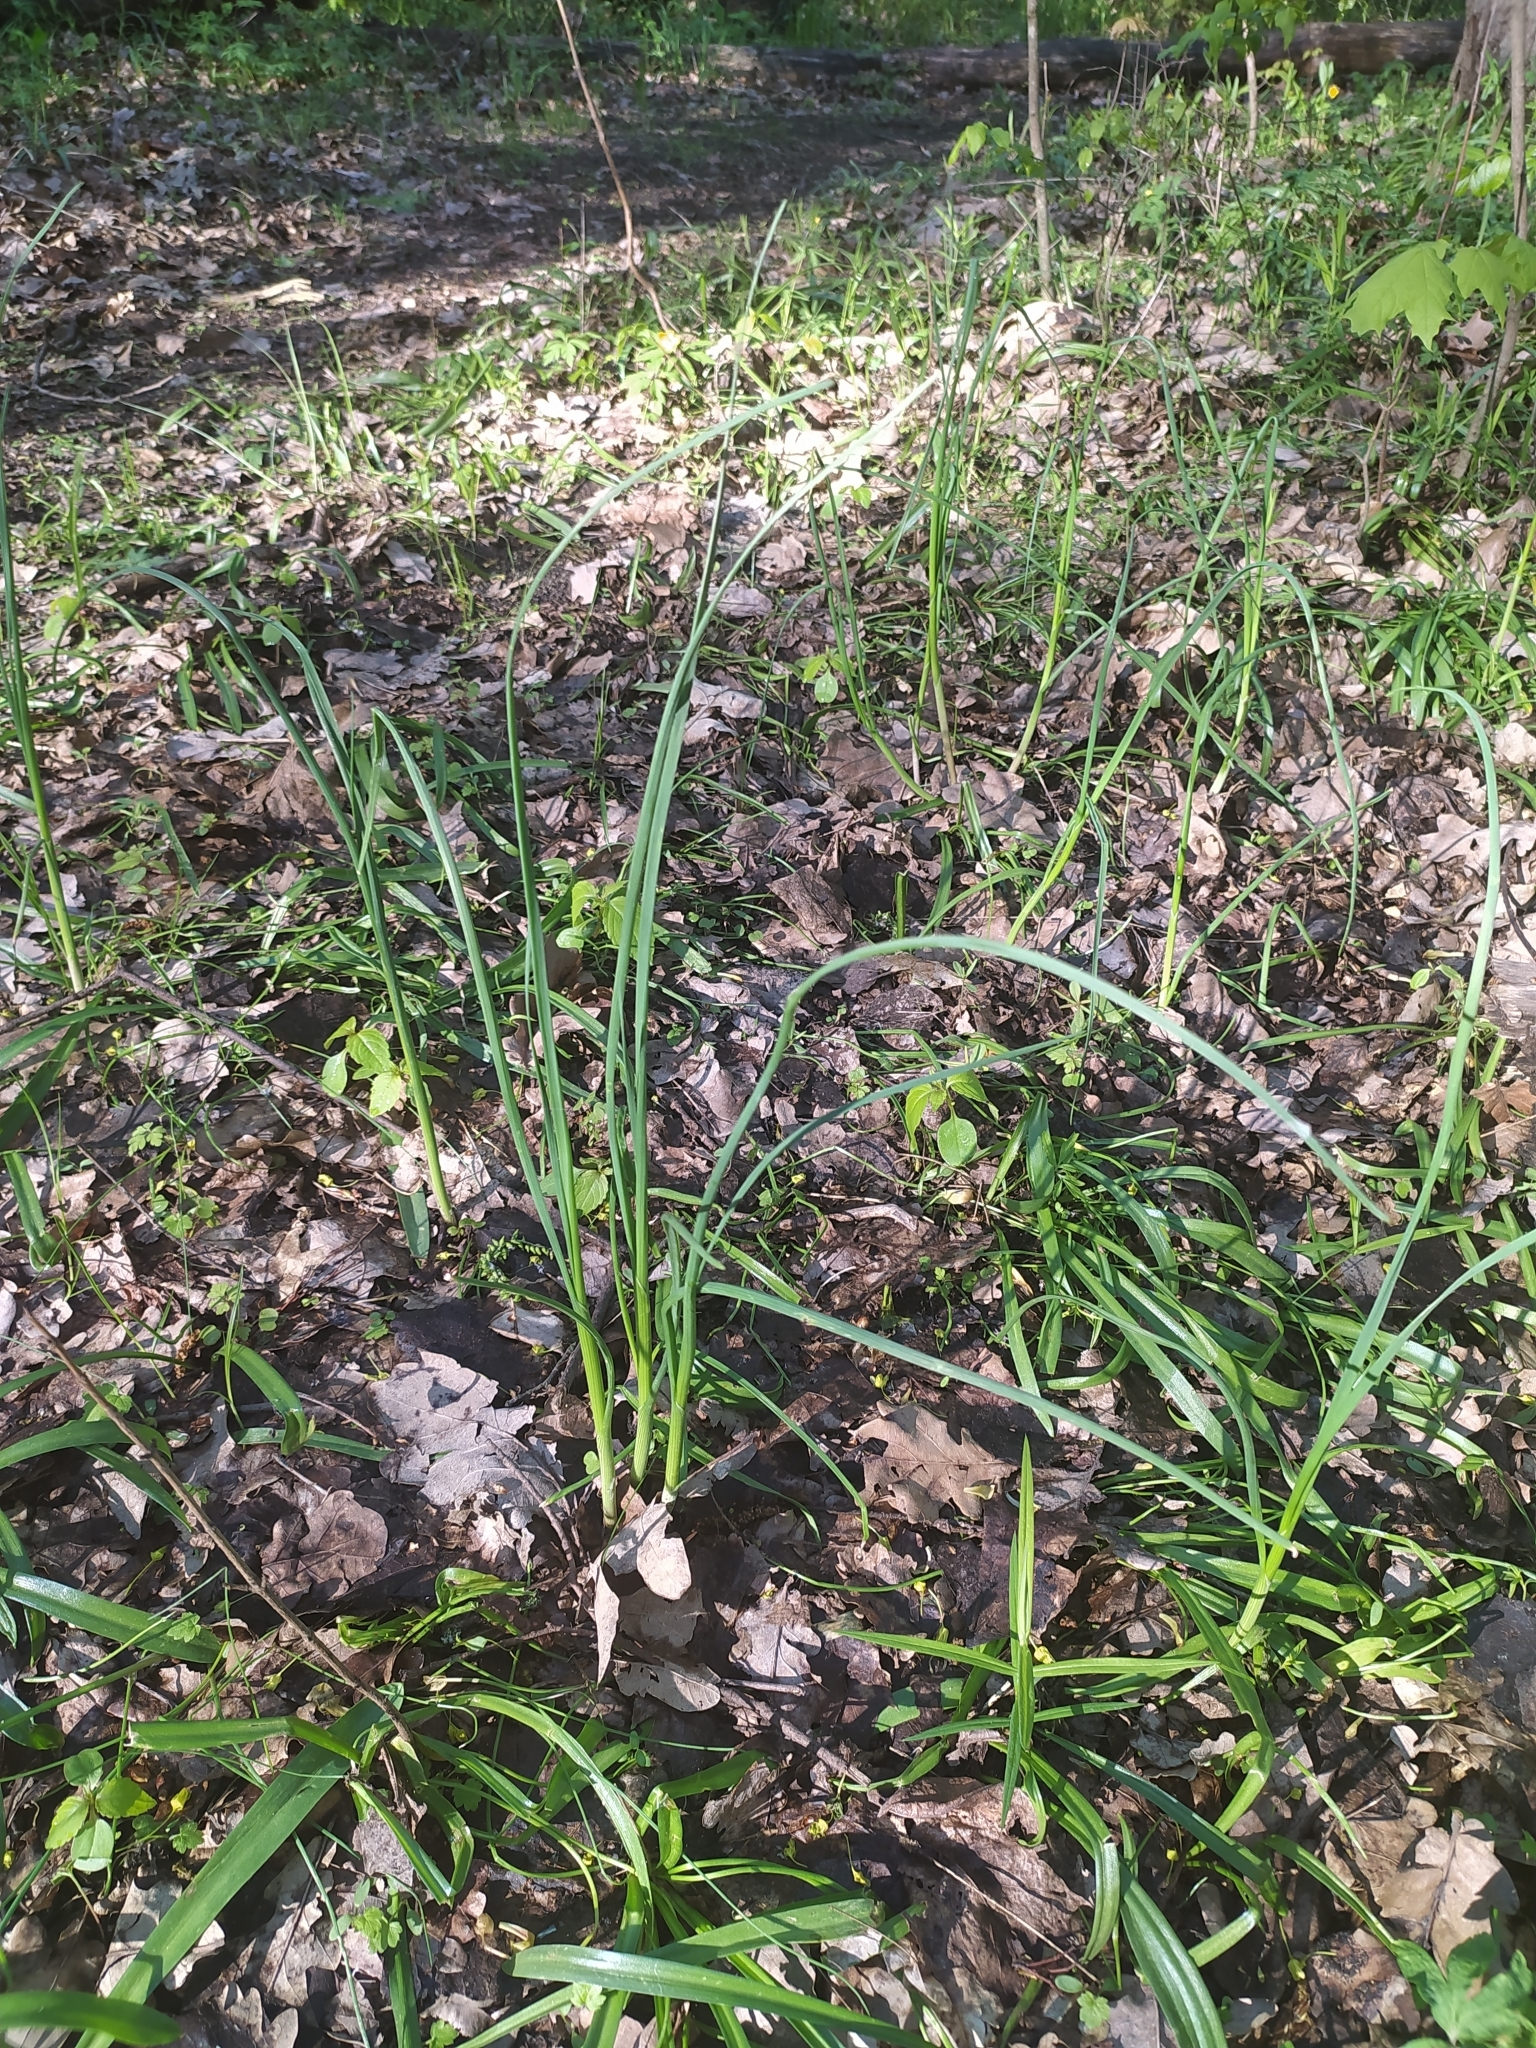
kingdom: Plantae
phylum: Tracheophyta
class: Liliopsida
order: Asparagales
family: Amaryllidaceae
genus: Allium
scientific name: Allium oleraceum
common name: Field garlic
